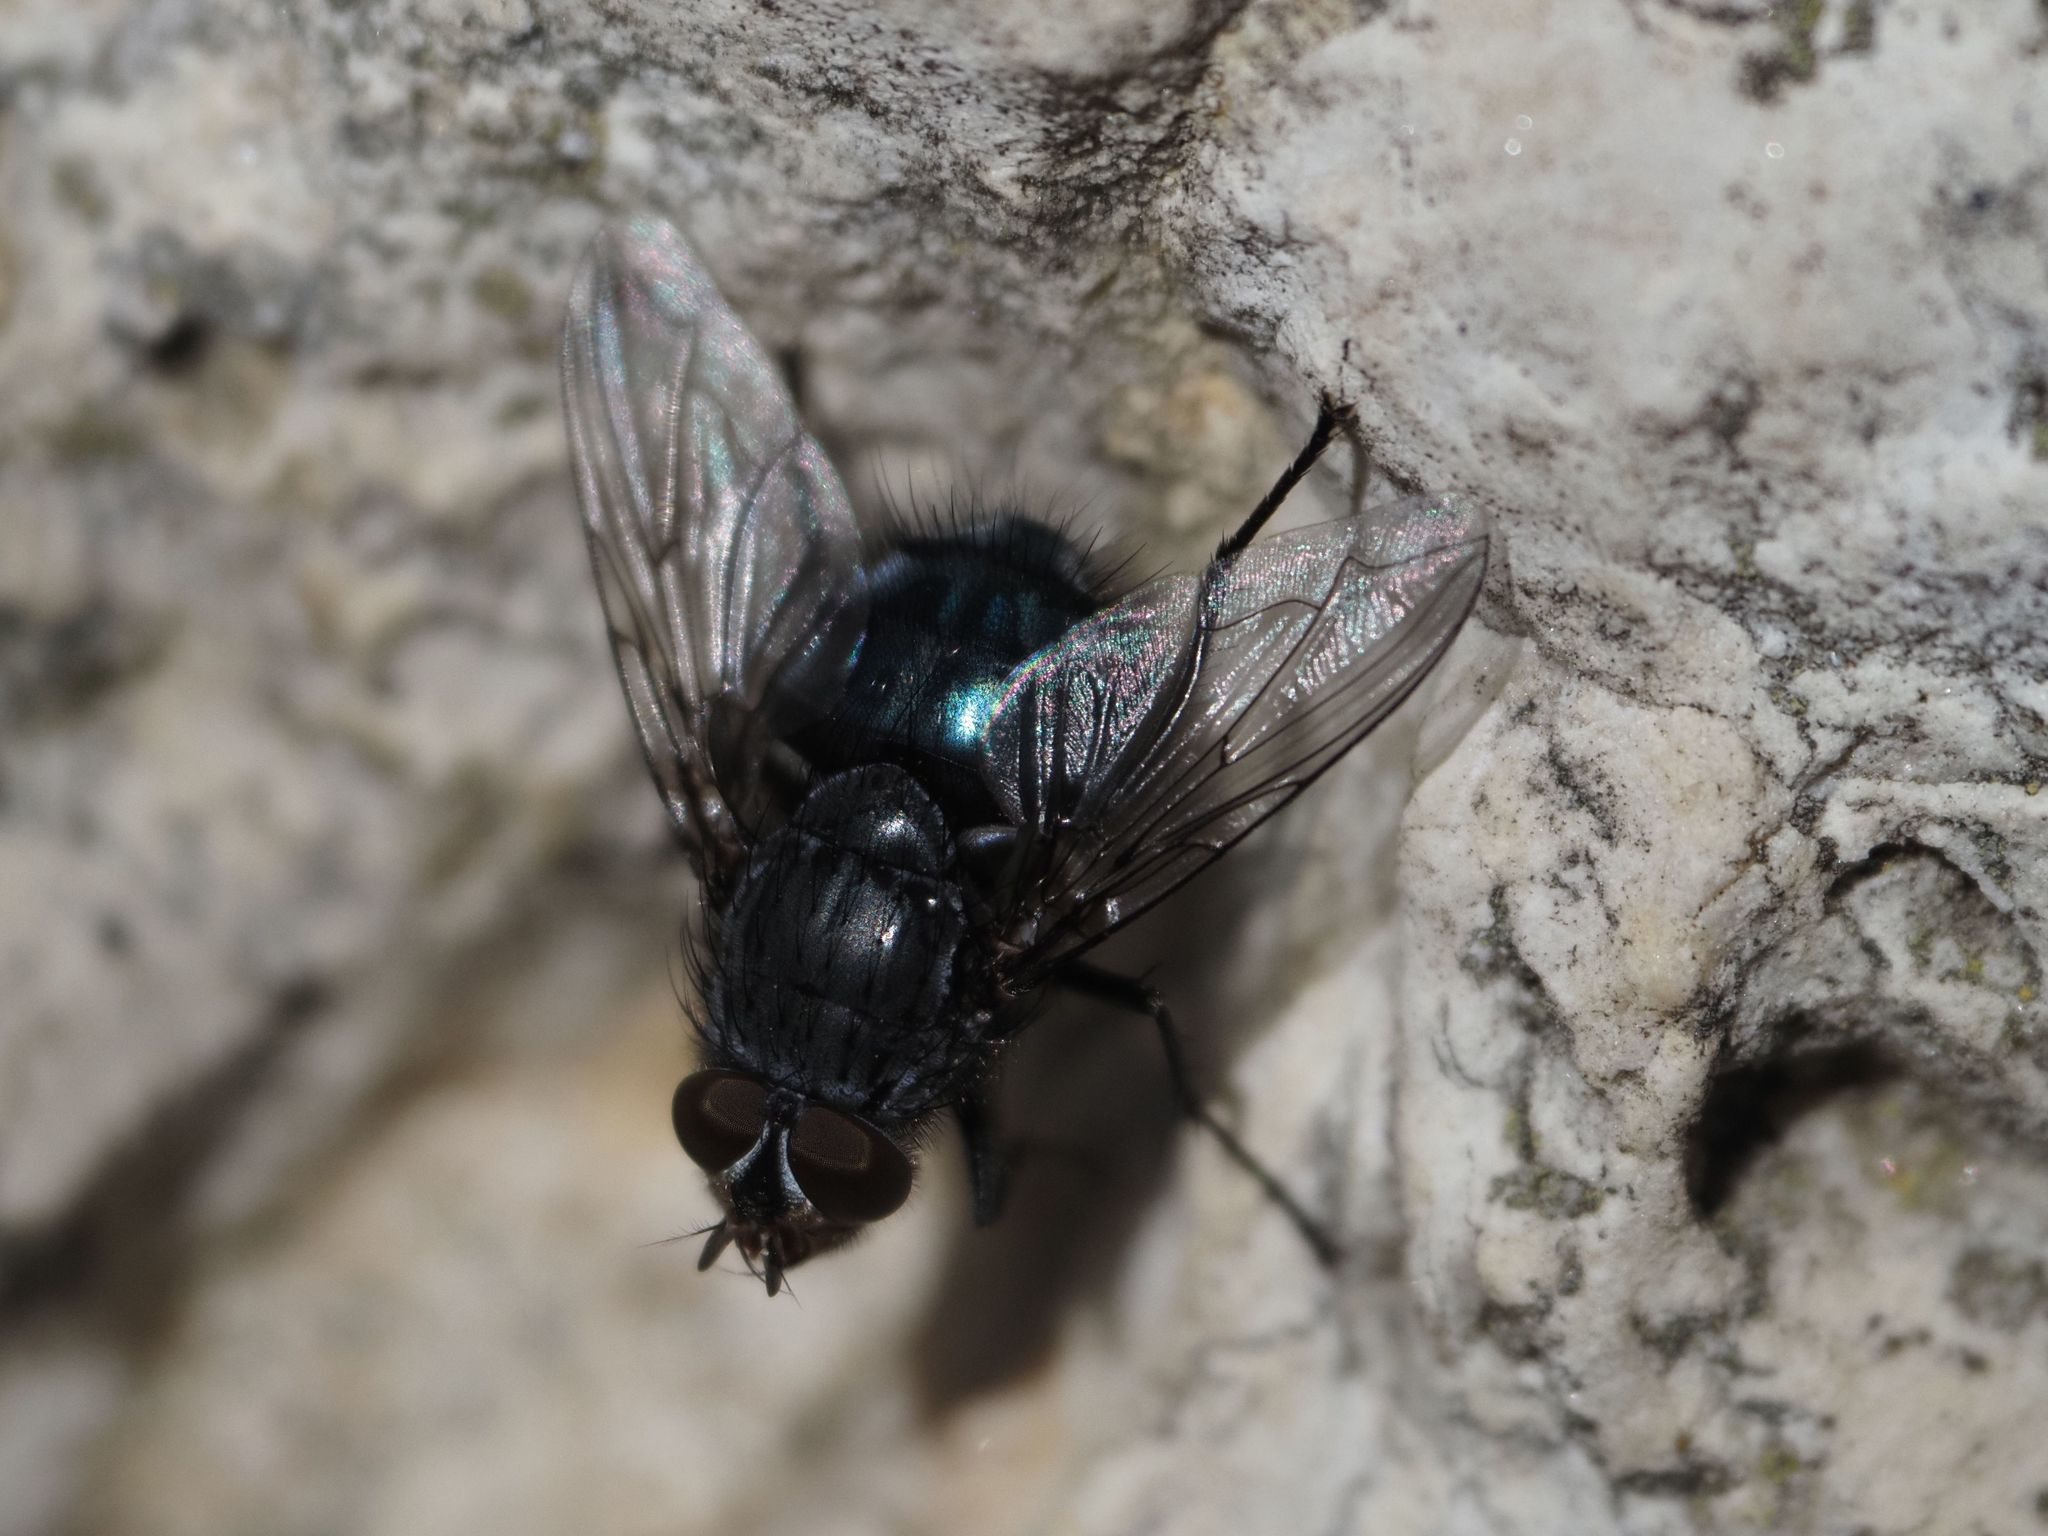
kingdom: Animalia
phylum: Arthropoda
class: Insecta
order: Diptera
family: Calliphoridae
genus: Calliphora
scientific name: Calliphora vicina
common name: Common blow flie
